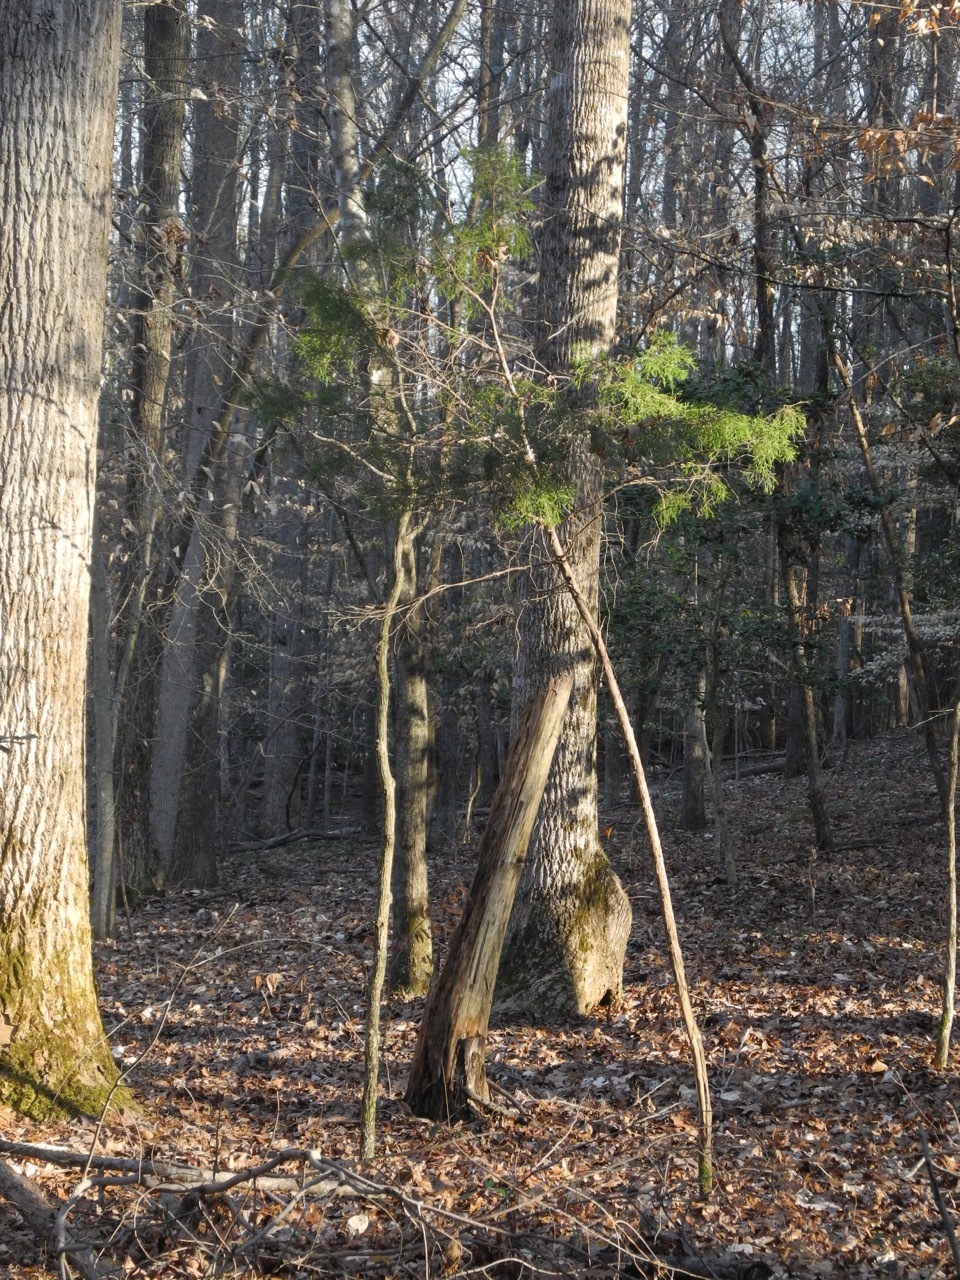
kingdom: Plantae
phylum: Tracheophyta
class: Pinopsida
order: Pinales
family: Cupressaceae
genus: Juniperus
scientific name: Juniperus virginiana
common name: Red juniper
